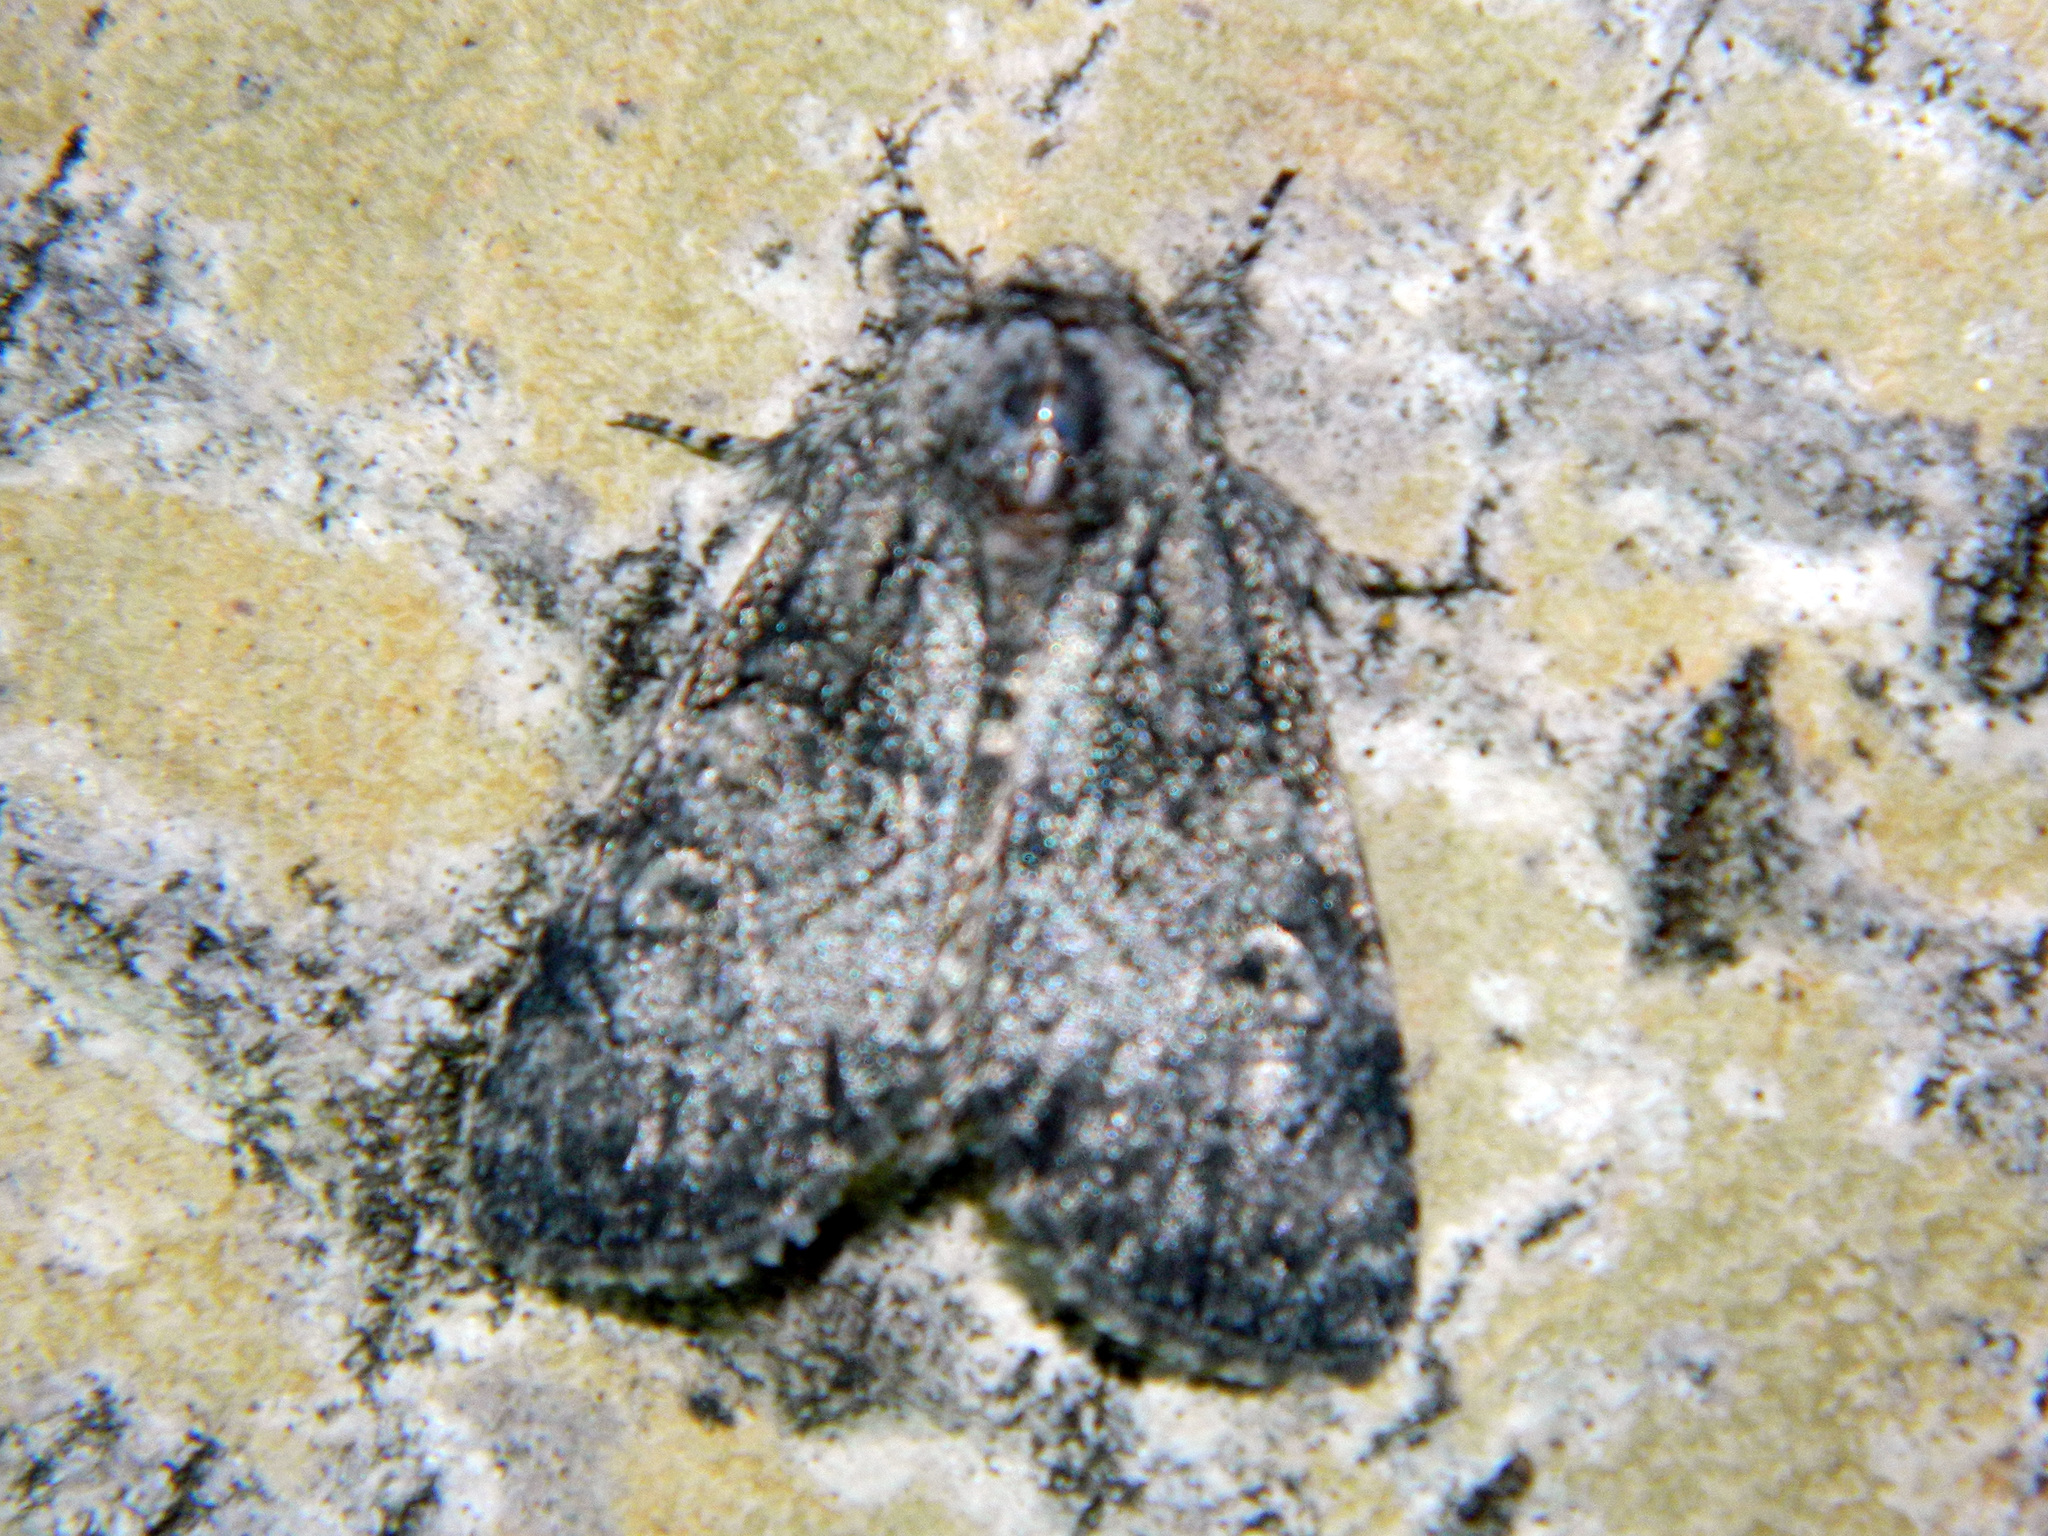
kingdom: Animalia
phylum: Arthropoda
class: Insecta
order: Lepidoptera
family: Noctuidae
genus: Raphia
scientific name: Raphia frater
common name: Brother
